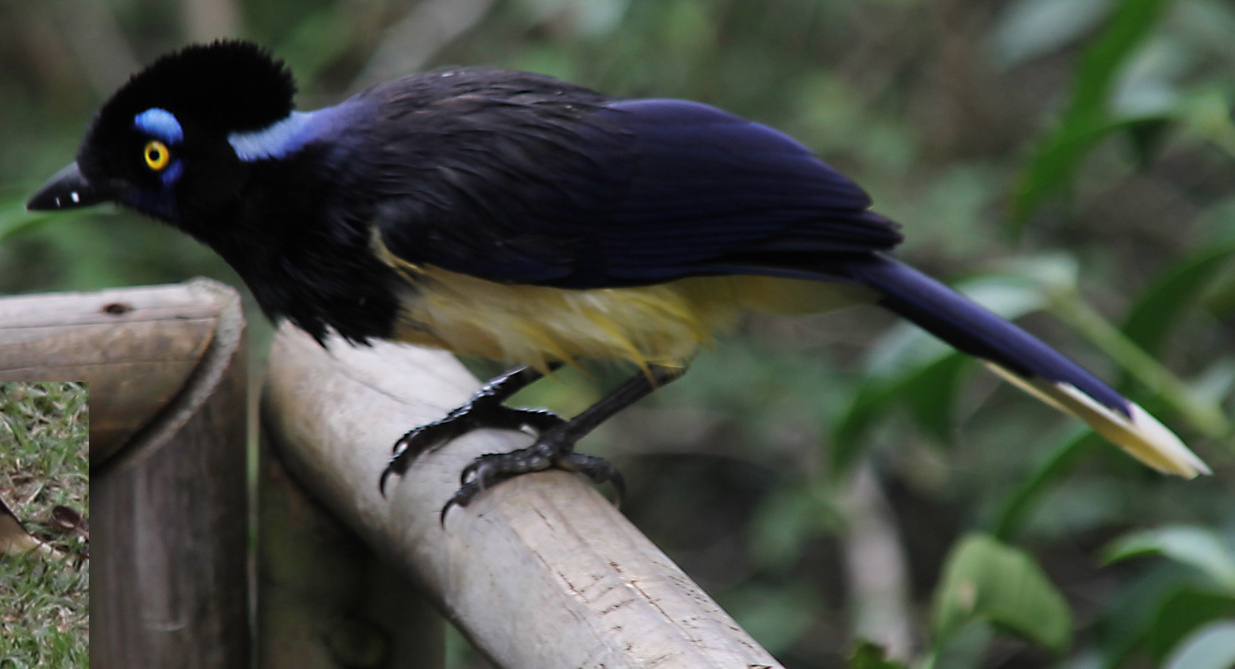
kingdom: Animalia
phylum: Chordata
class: Aves
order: Passeriformes
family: Corvidae
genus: Cyanocorax
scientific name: Cyanocorax chrysops
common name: Plush-crested jay
